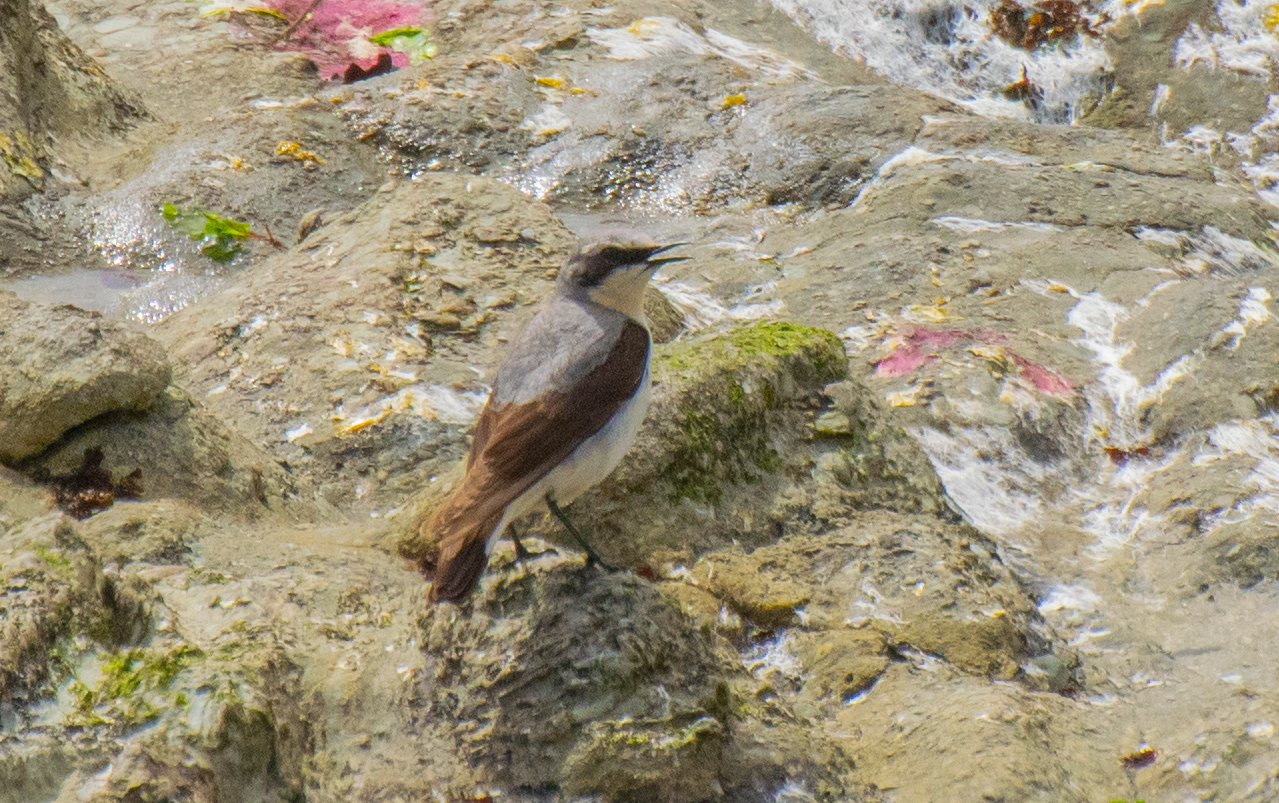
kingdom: Animalia
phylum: Chordata
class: Aves
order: Passeriformes
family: Muscicapidae
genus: Oenanthe
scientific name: Oenanthe oenanthe
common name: Northern wheatear
